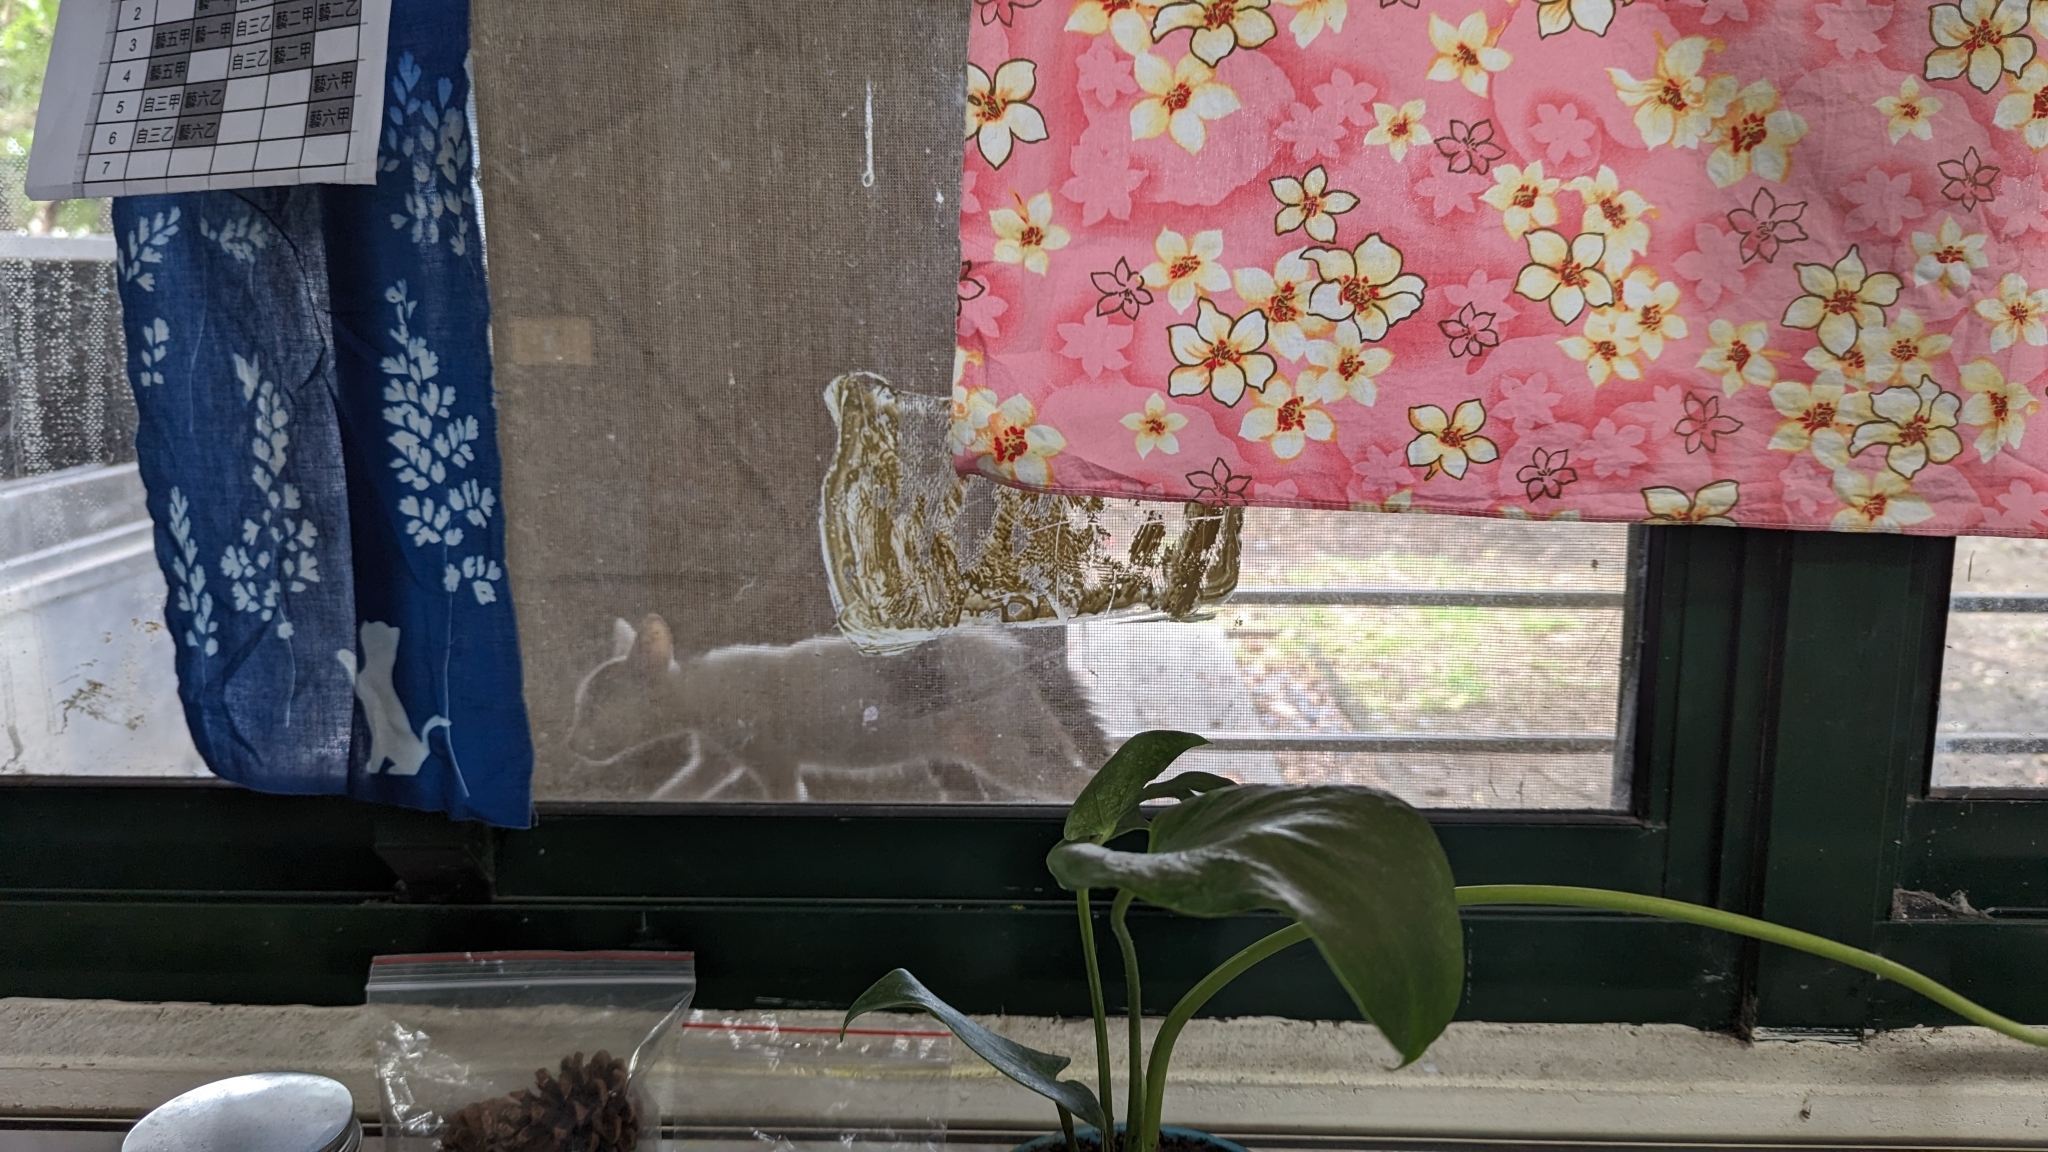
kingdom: Animalia
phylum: Chordata
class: Mammalia
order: Carnivora
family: Felidae
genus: Felis
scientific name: Felis catus
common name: Domestic cat
